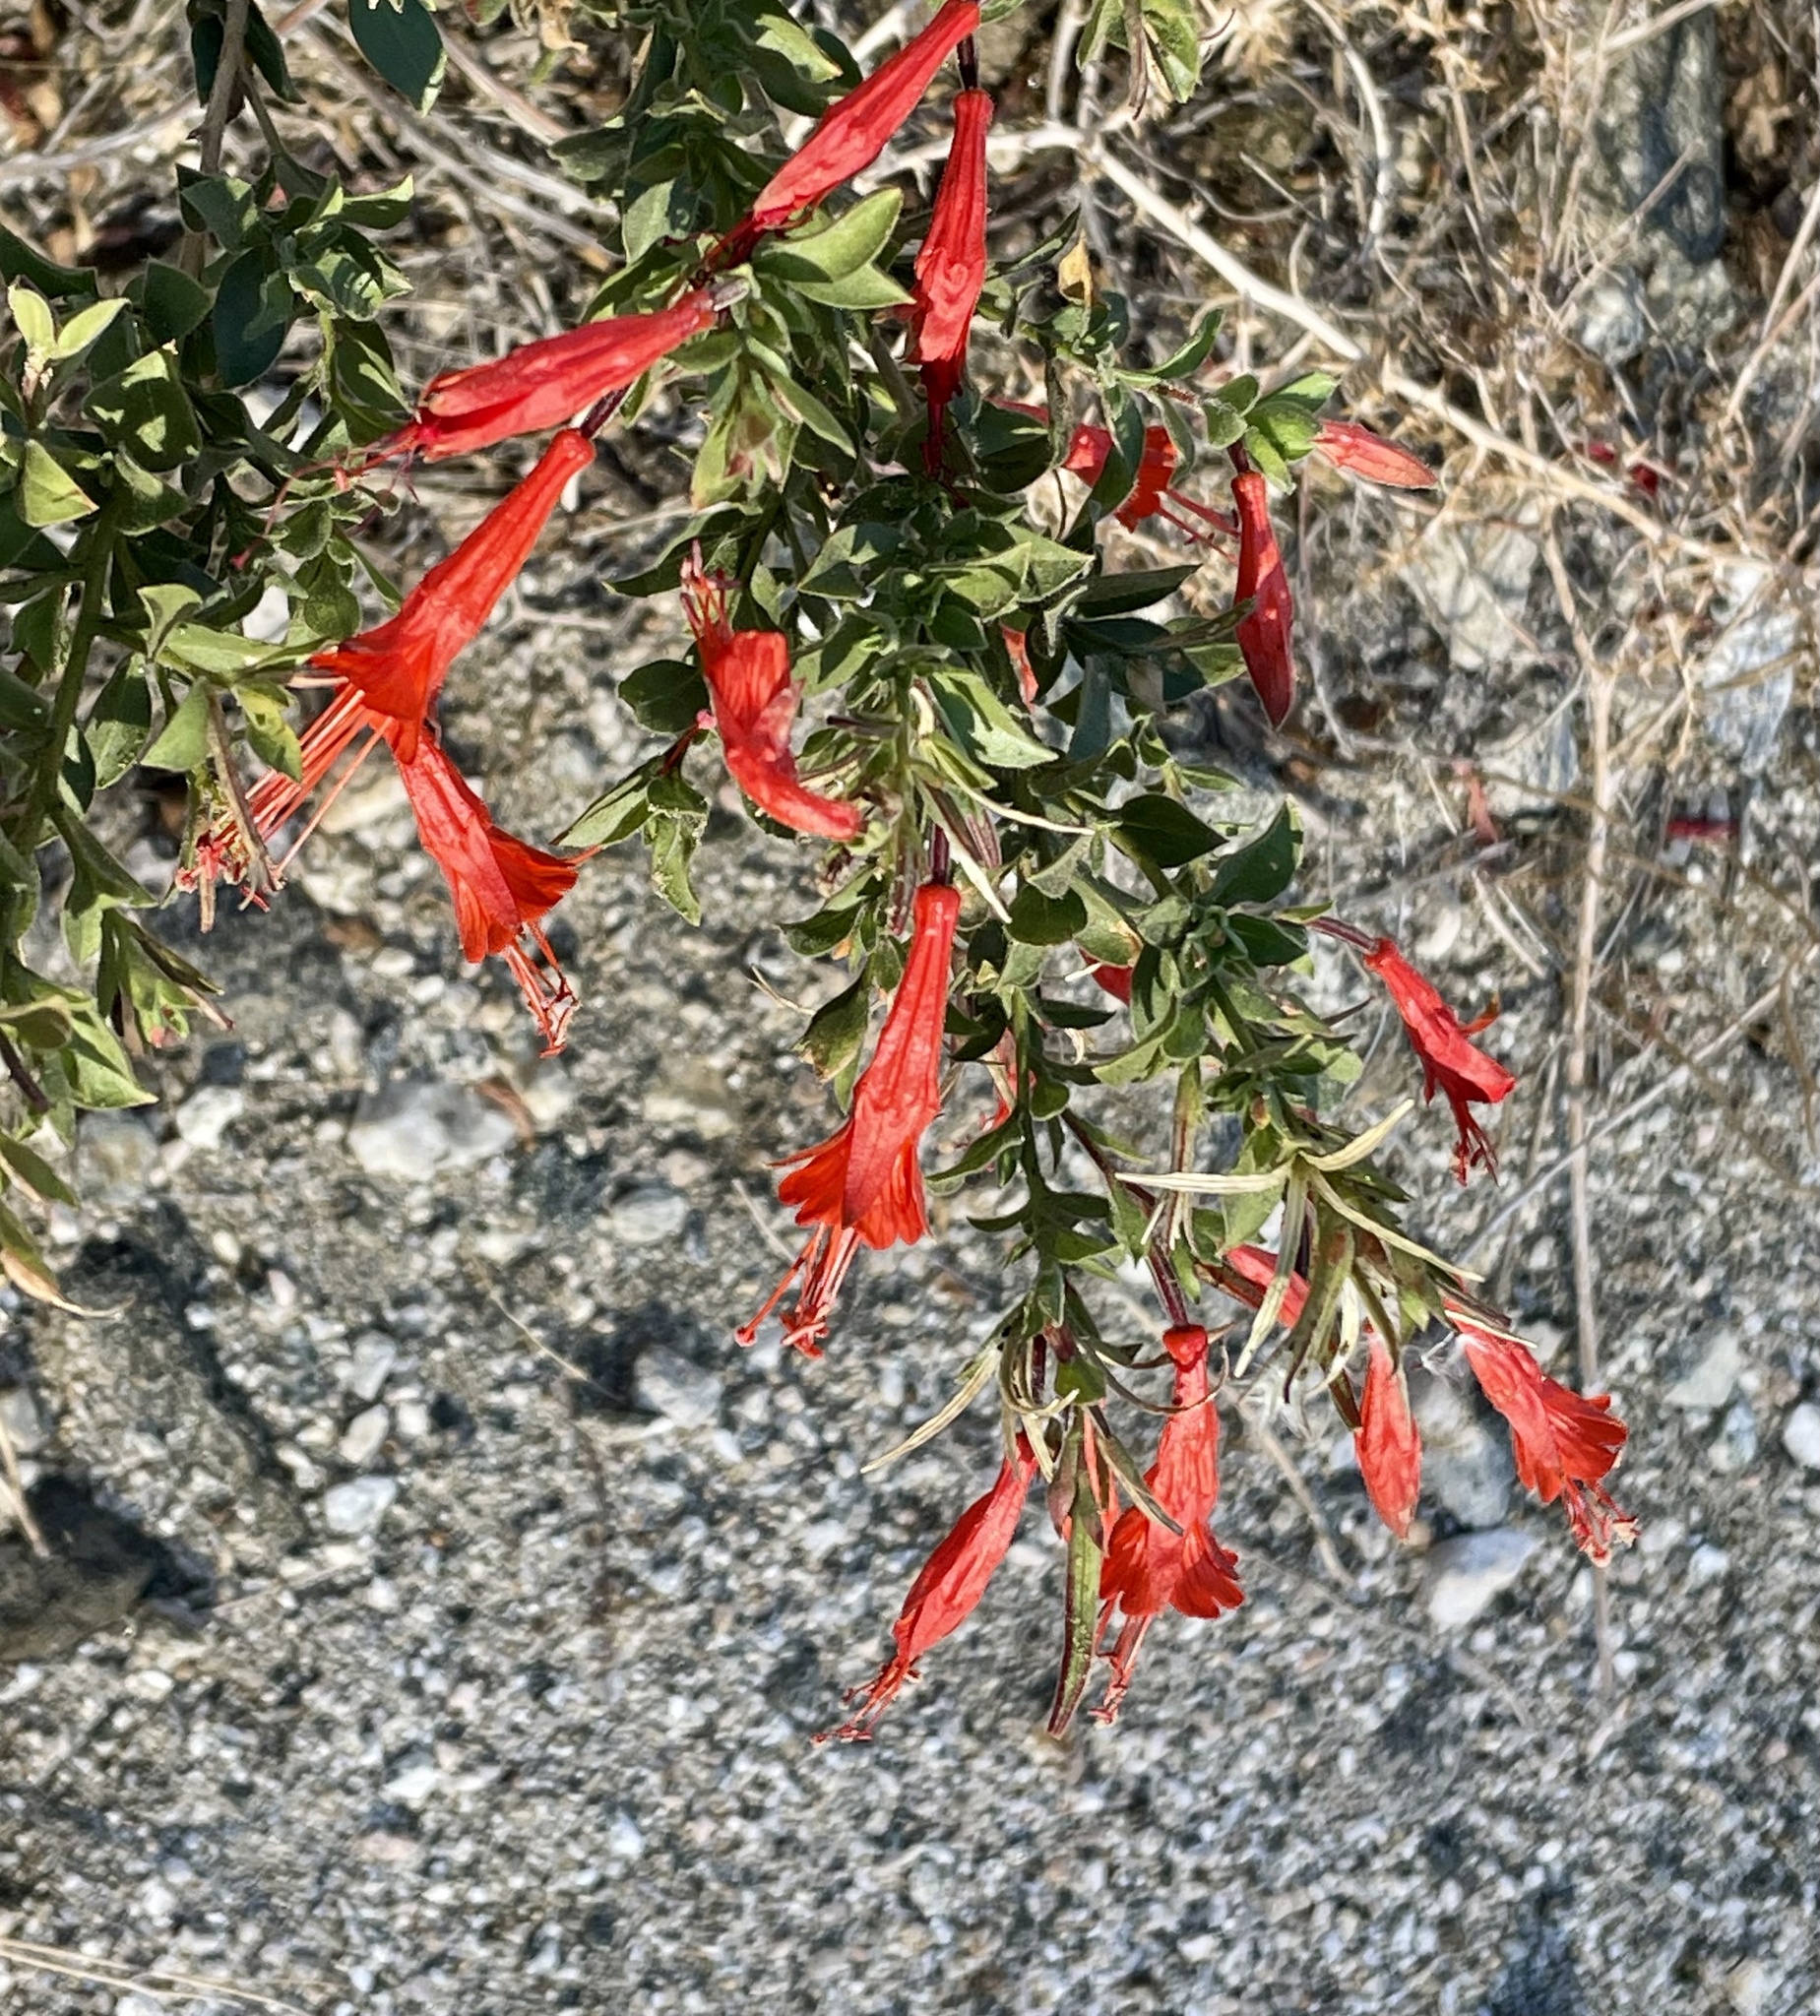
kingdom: Plantae
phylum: Tracheophyta
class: Magnoliopsida
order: Myrtales
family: Onagraceae
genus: Epilobium
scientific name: Epilobium canum
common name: California-fuchsia
